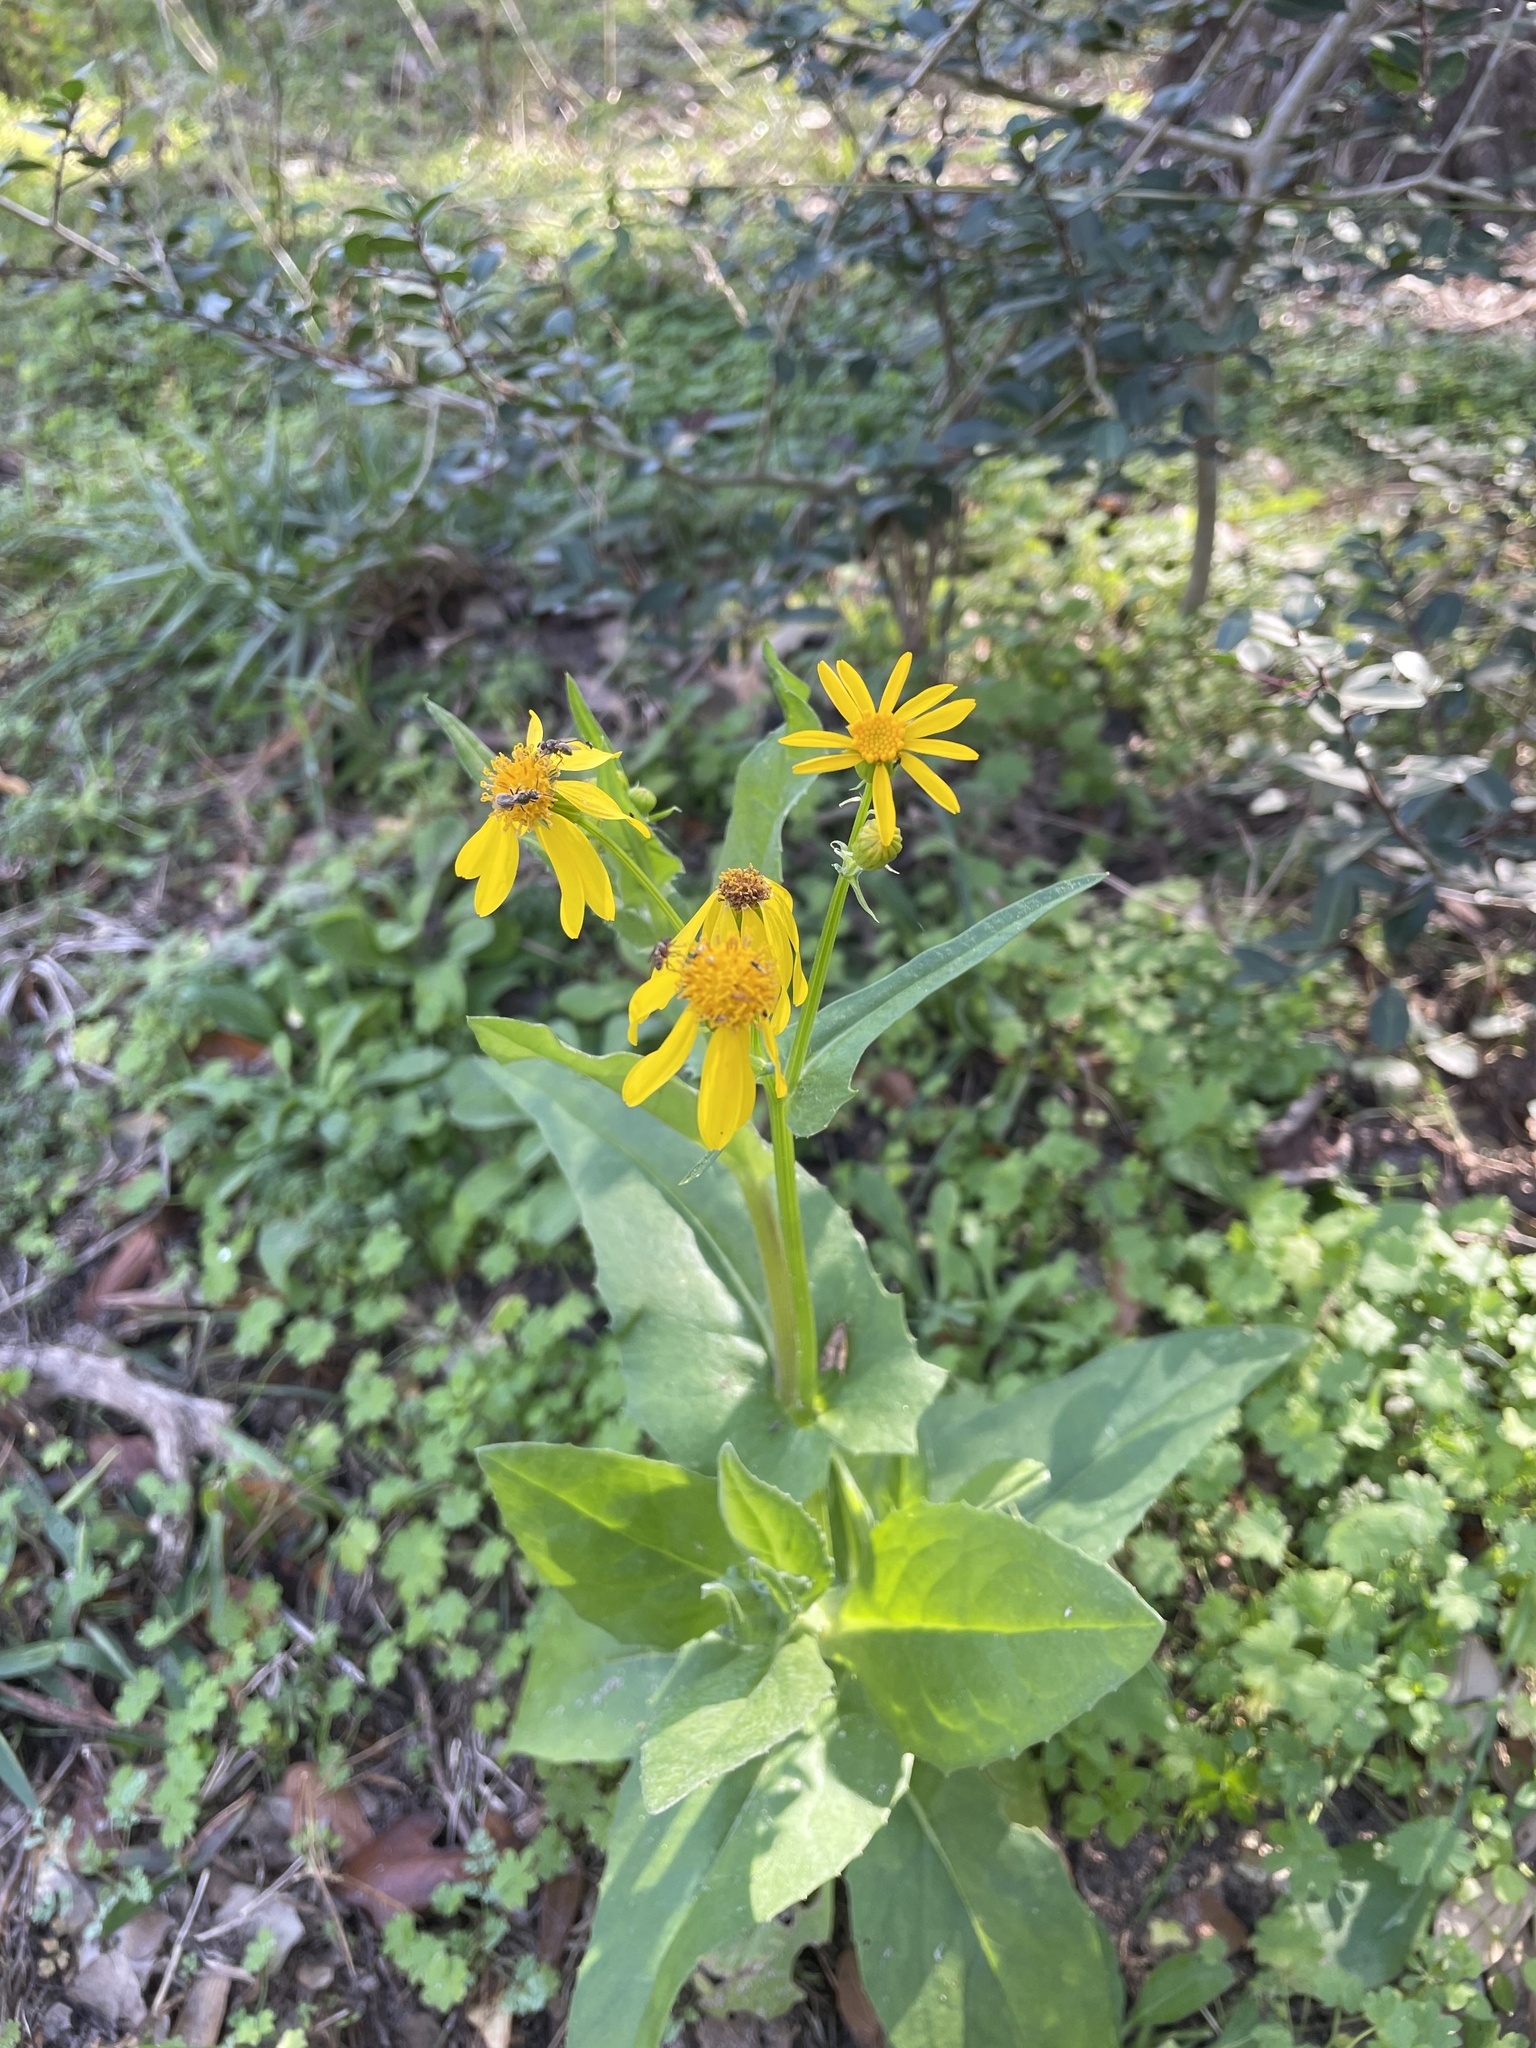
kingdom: Plantae
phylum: Tracheophyta
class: Magnoliopsida
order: Asterales
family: Asteraceae
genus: Senecio
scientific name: Senecio ampullaceus
